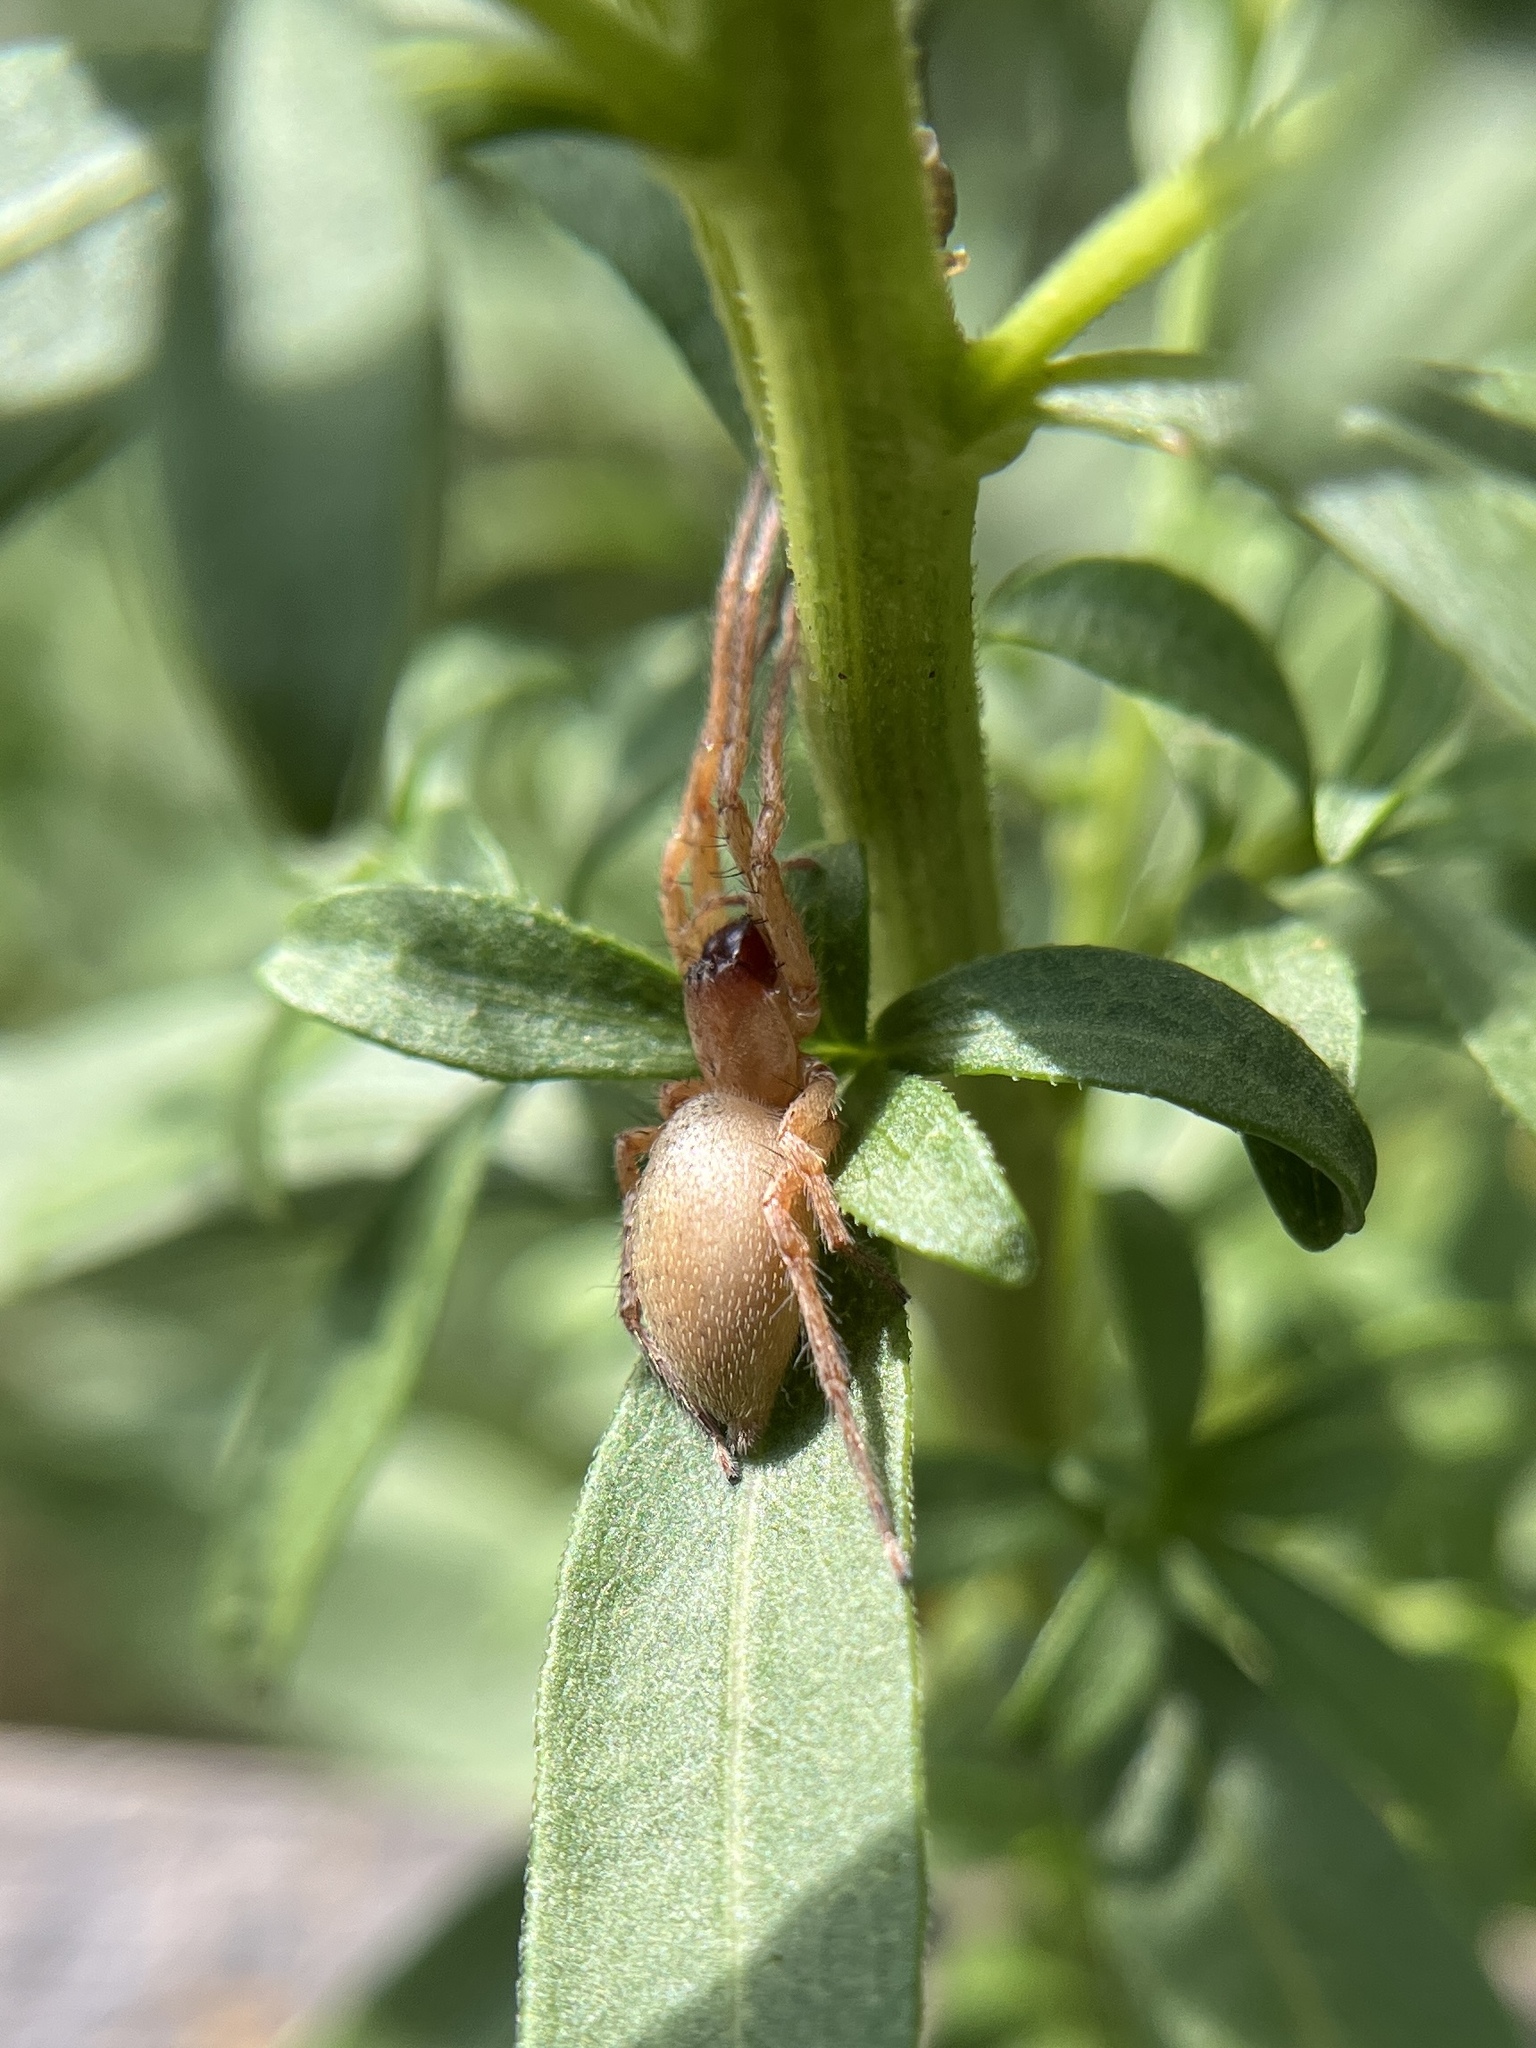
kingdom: Animalia
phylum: Arthropoda
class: Arachnida
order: Araneae
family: Anyphaenidae
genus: Hibana
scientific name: Hibana velox
